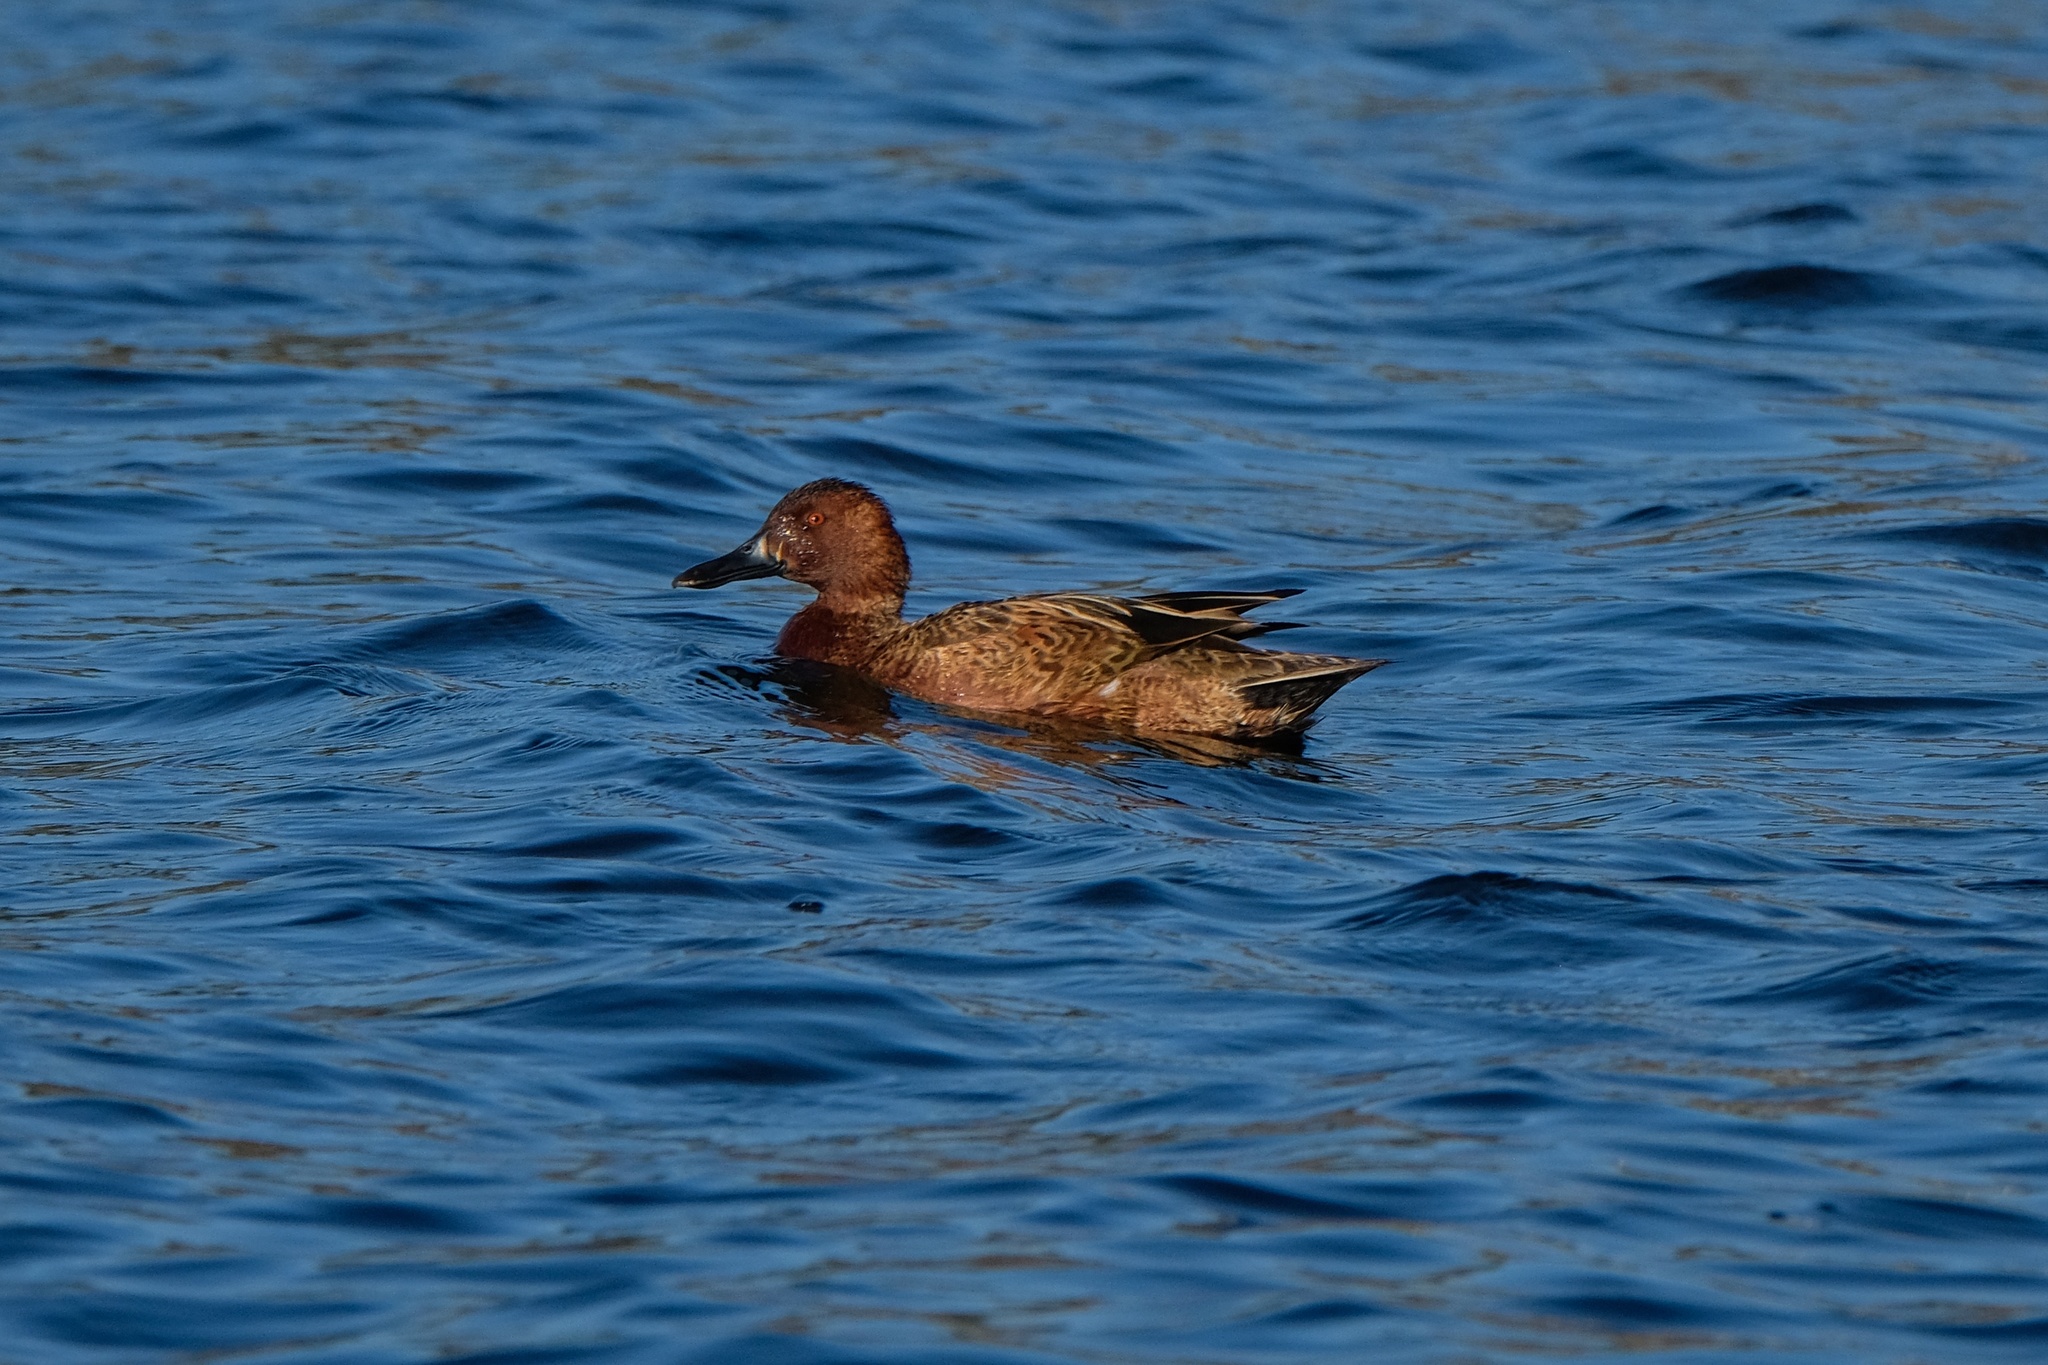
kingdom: Animalia
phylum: Chordata
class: Aves
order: Anseriformes
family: Anatidae
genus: Spatula
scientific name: Spatula cyanoptera
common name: Cinnamon teal
